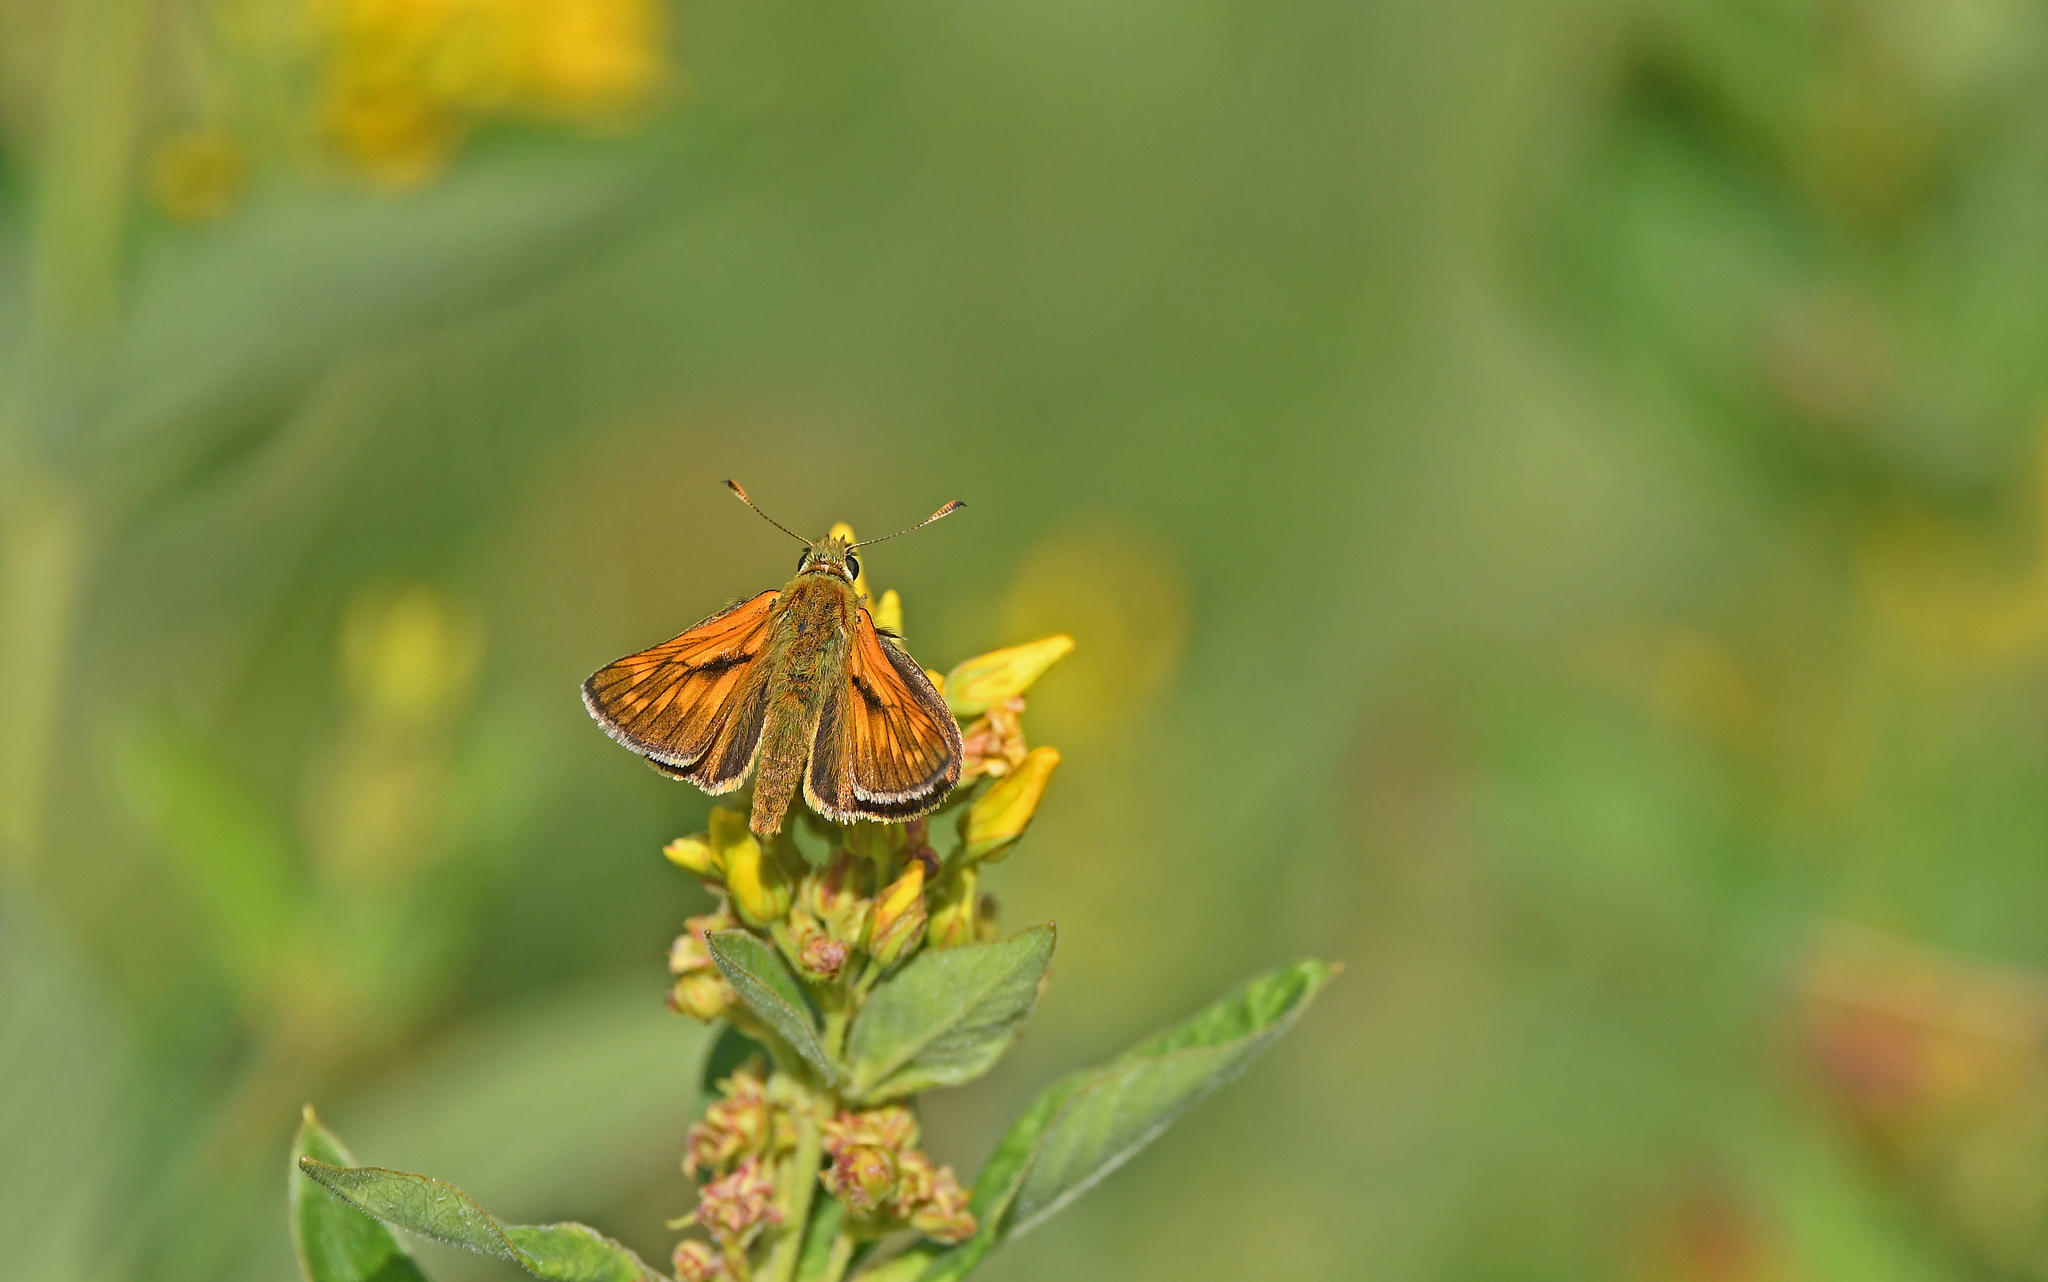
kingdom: Animalia
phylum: Arthropoda
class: Insecta
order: Lepidoptera
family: Hesperiidae
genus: Ochlodes
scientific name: Ochlodes venata
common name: Large skipper
